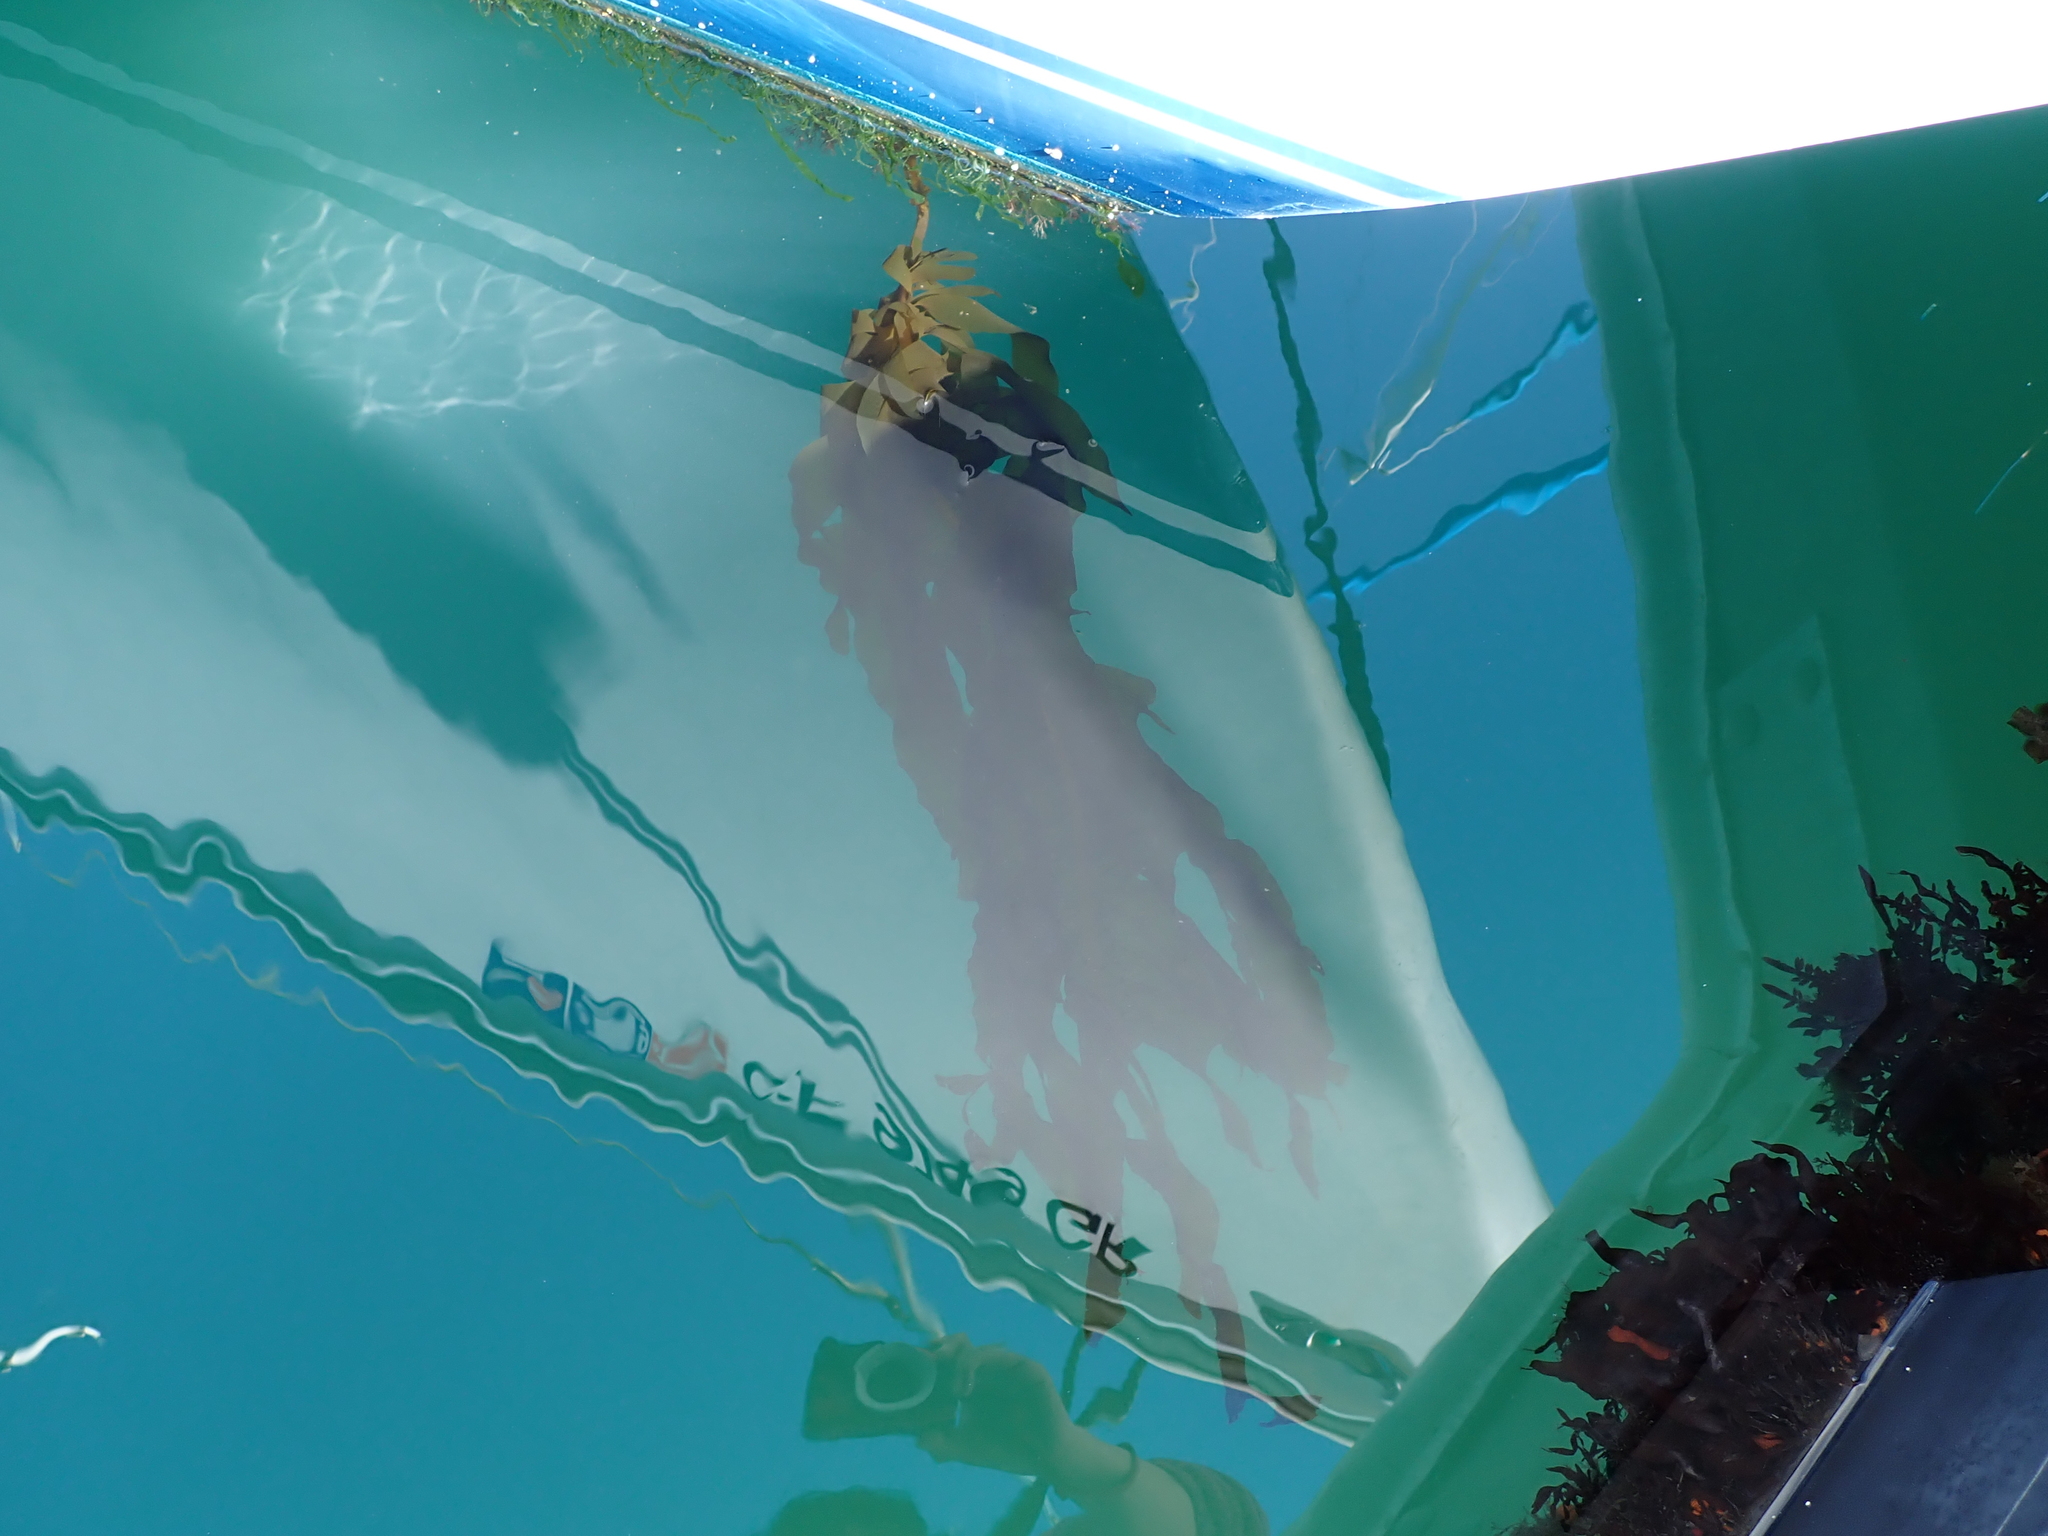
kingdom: Chromista
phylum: Ochrophyta
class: Phaeophyceae
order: Laminariales
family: Alariaceae
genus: Undaria
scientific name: Undaria pinnatifida
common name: Asian kelp
